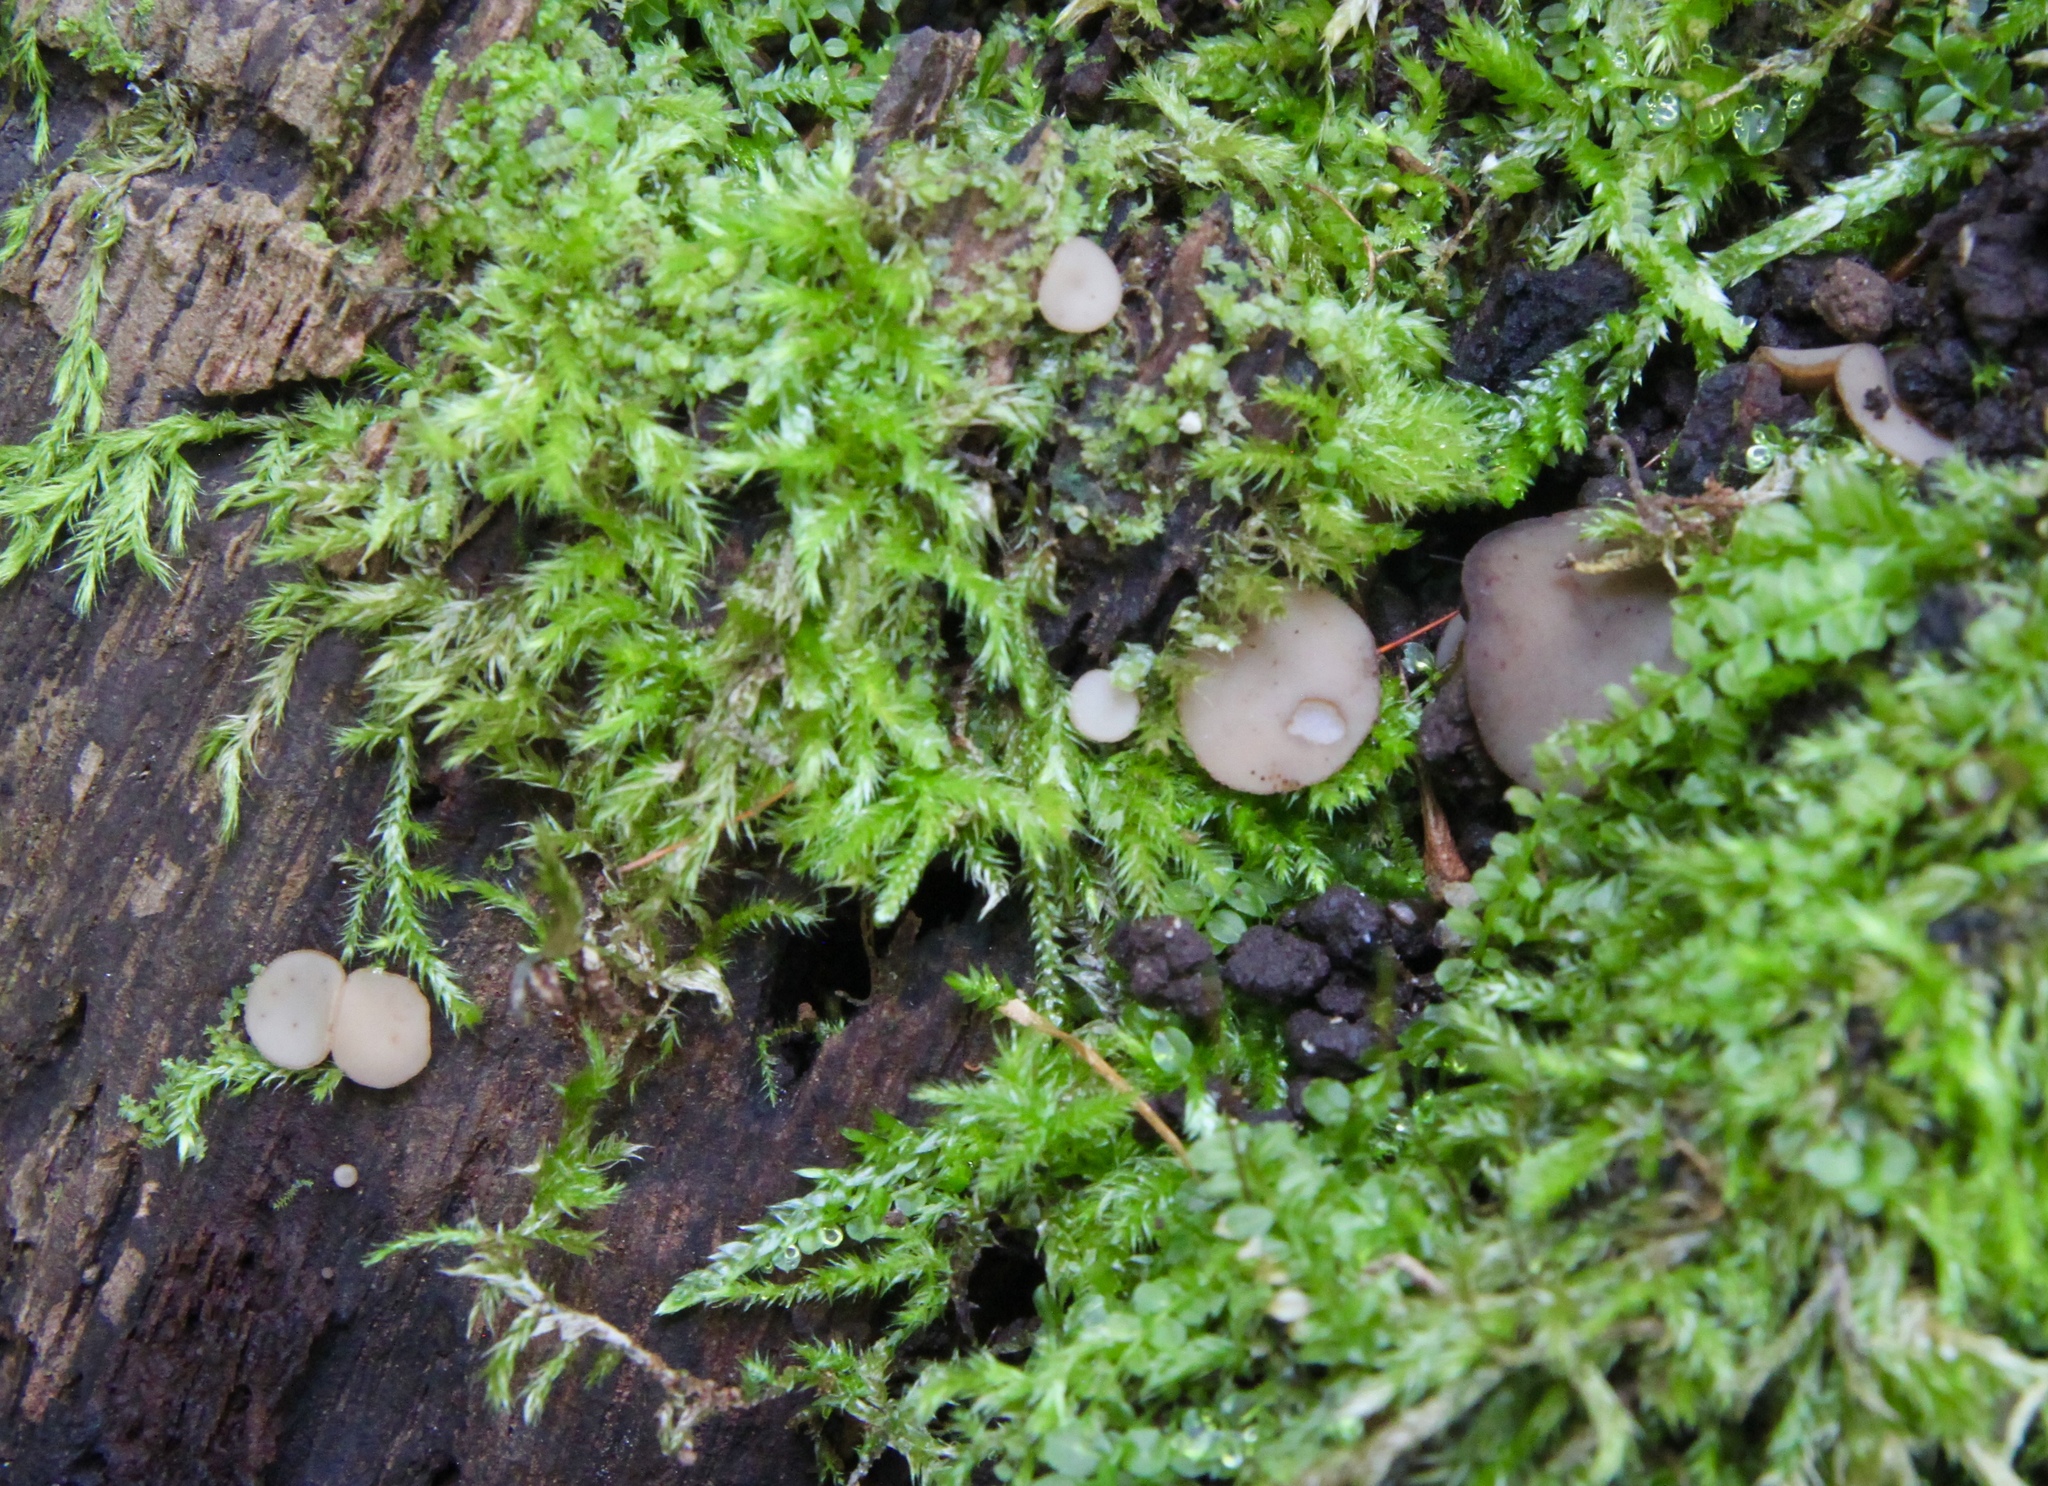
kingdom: Fungi
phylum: Ascomycota
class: Leotiomycetes
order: Helotiales
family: Helotiaceae
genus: Tatraea
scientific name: Tatraea macrospora
